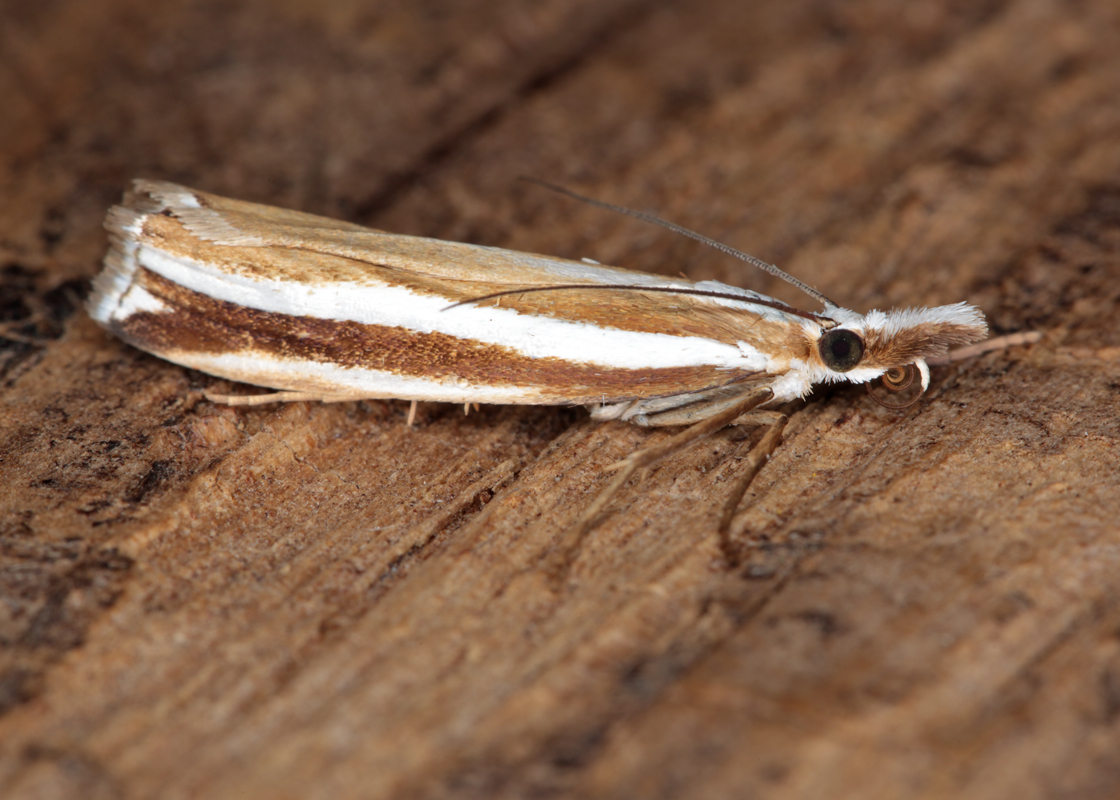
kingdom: Animalia
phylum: Arthropoda
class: Insecta
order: Lepidoptera
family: Crambidae
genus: Orocrambus
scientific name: Orocrambus apicellus
